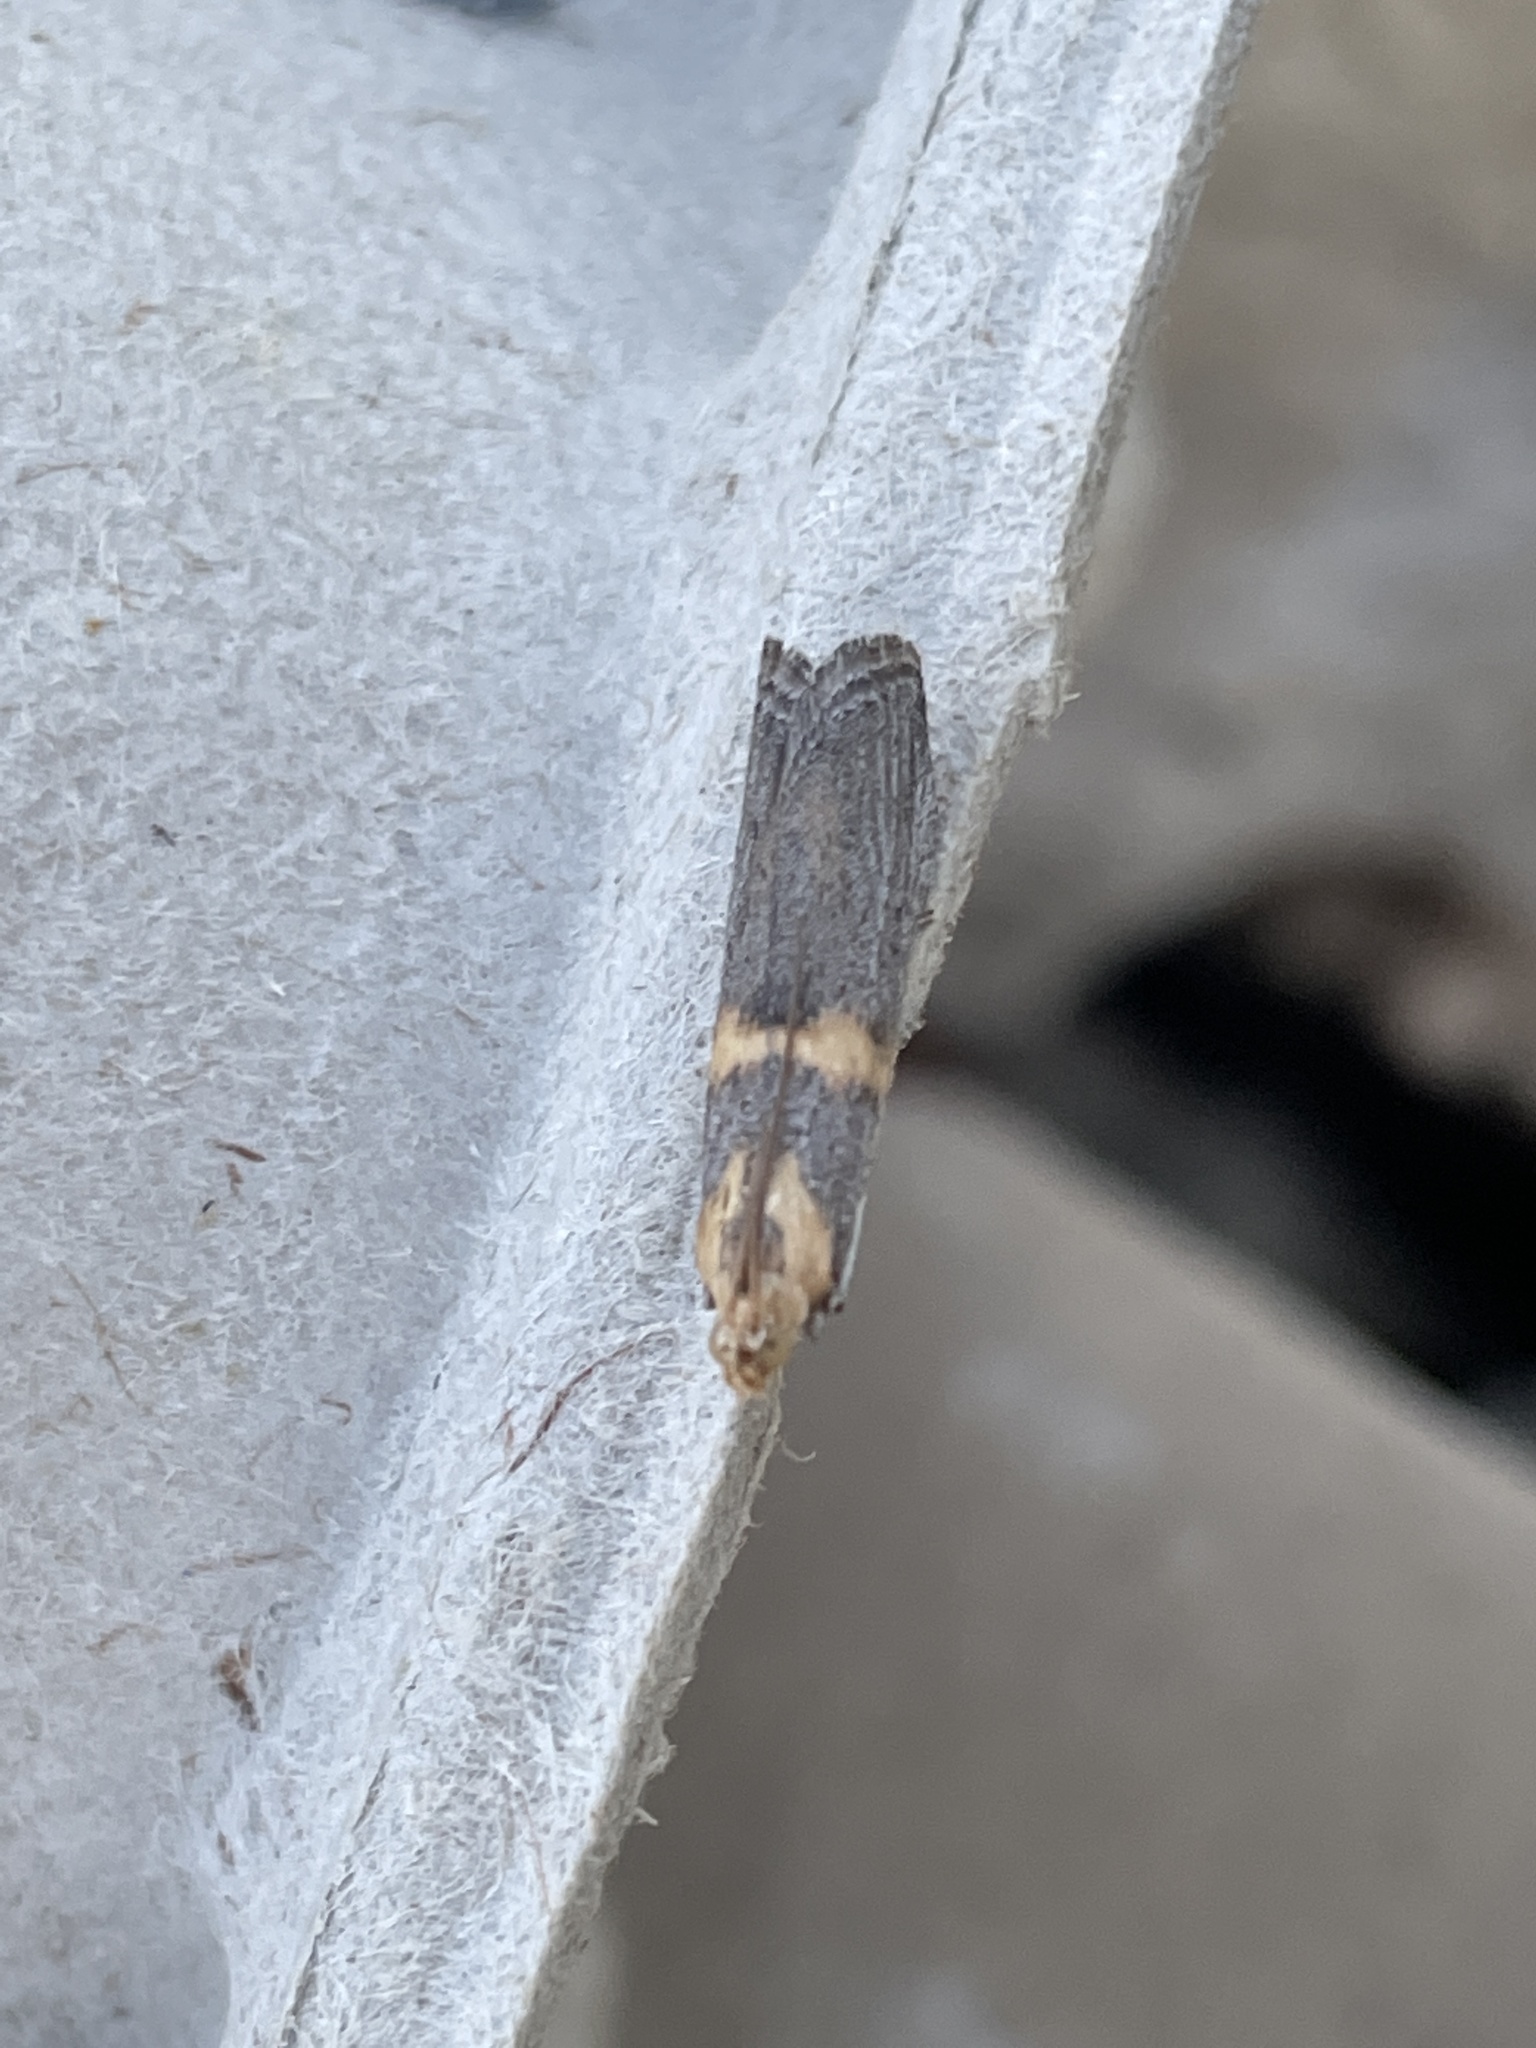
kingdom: Animalia
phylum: Arthropoda
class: Insecta
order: Lepidoptera
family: Pyralidae
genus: Oxybia
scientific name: Oxybia transversella
